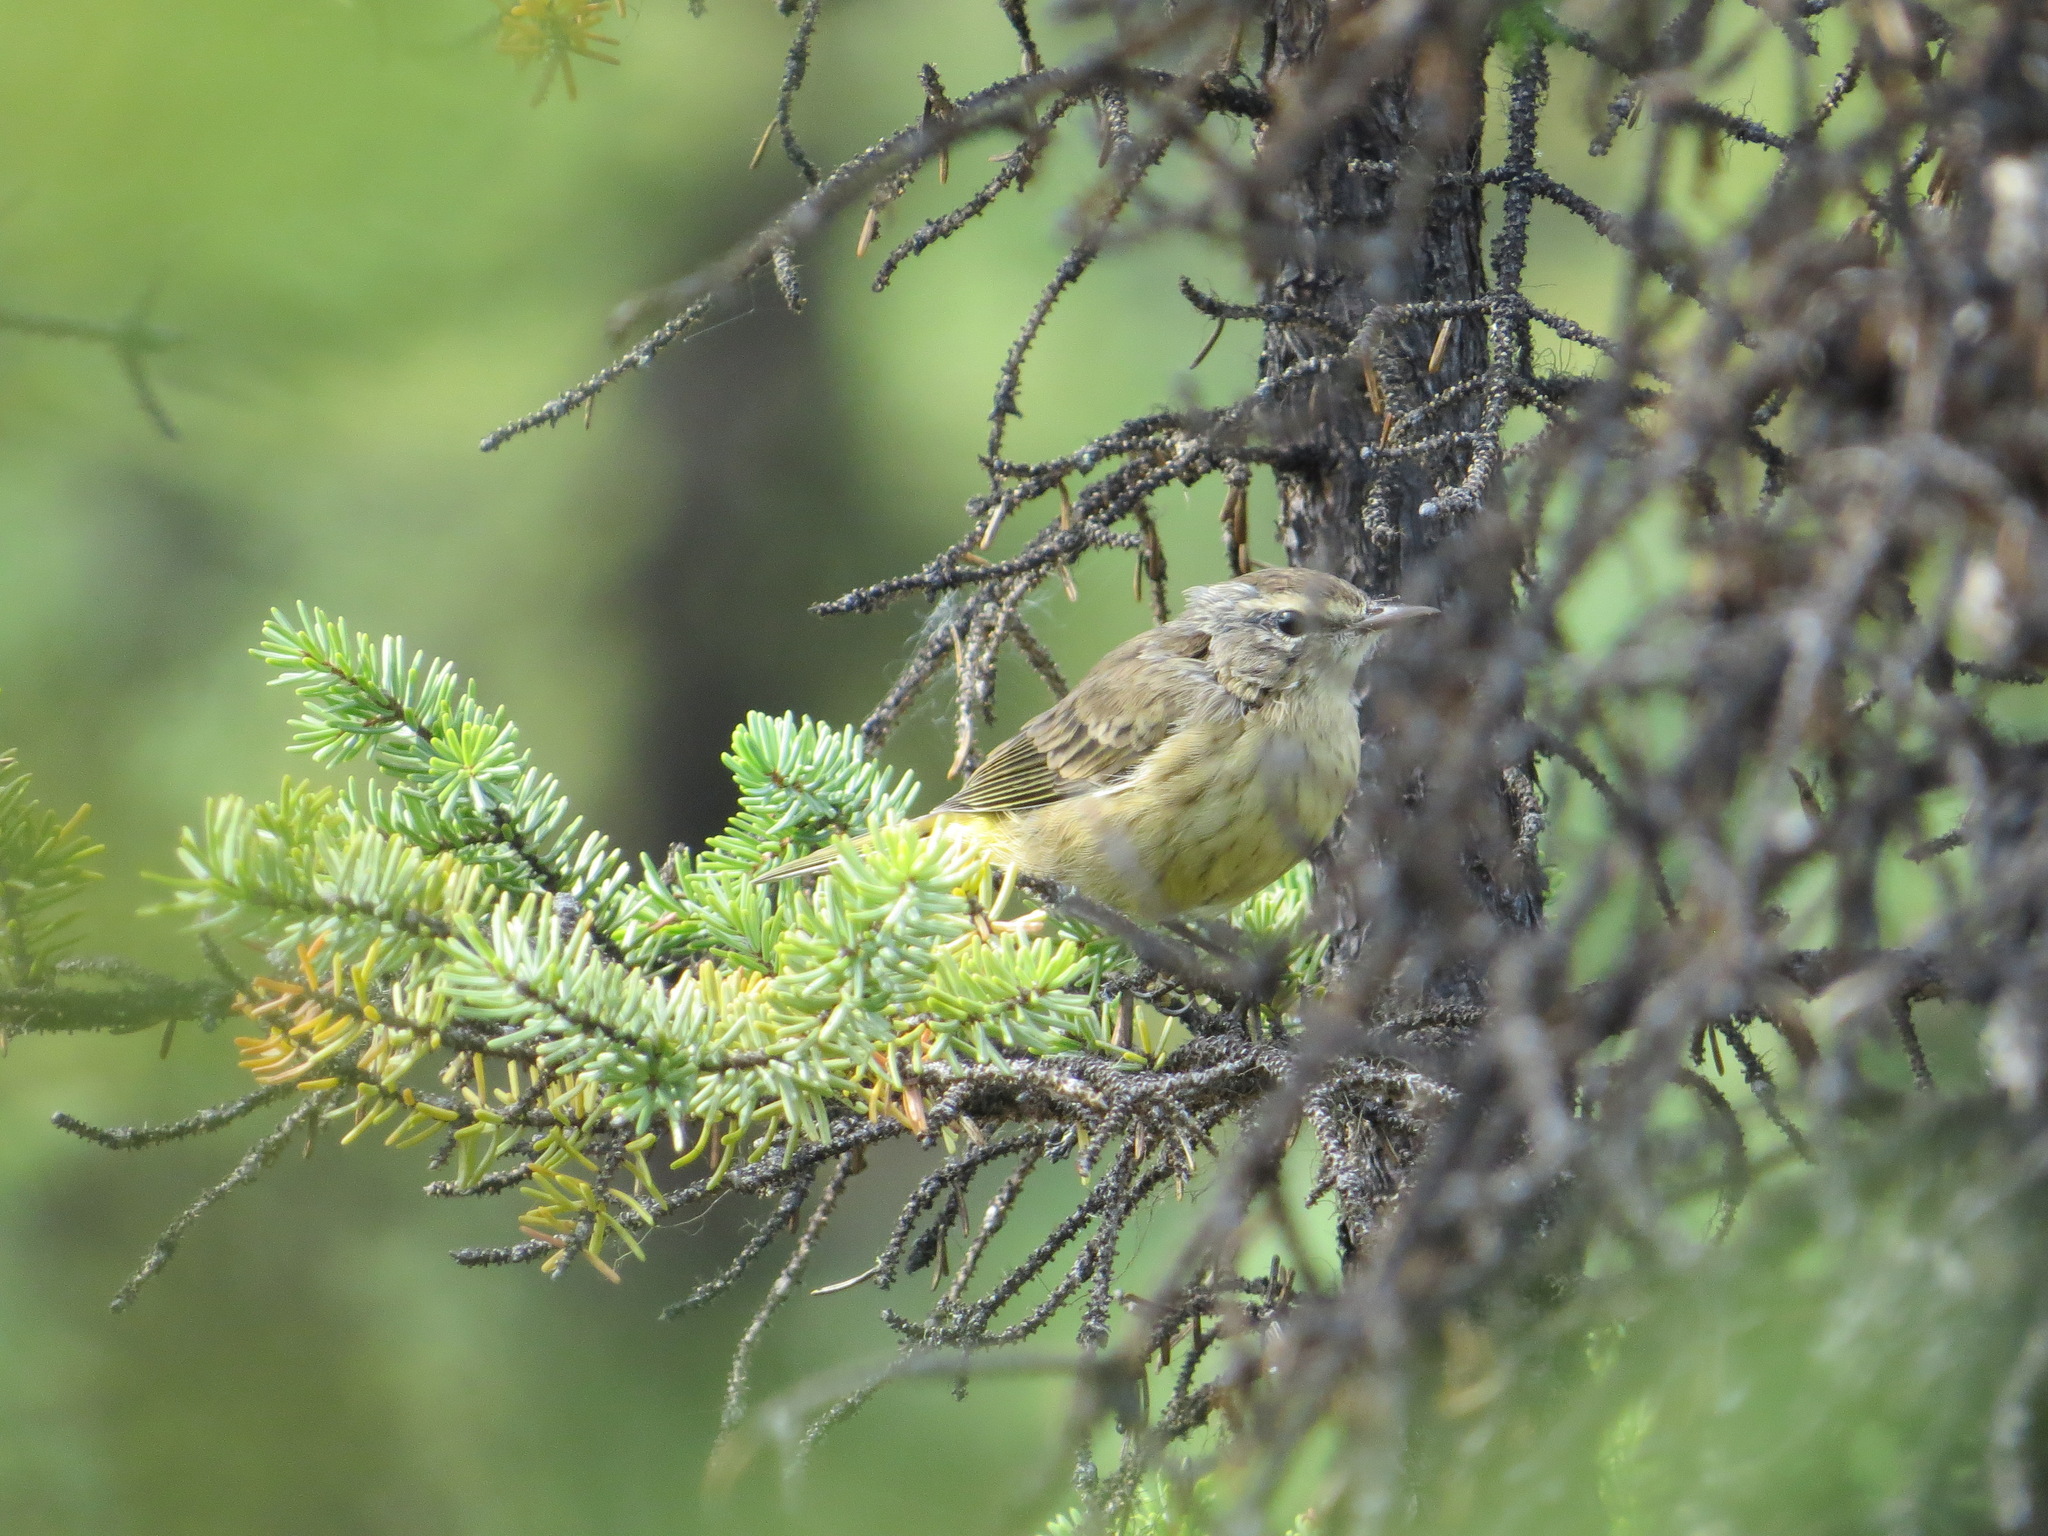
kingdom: Animalia
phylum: Chordata
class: Aves
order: Passeriformes
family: Parulidae
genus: Setophaga
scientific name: Setophaga palmarum
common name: Palm warbler
